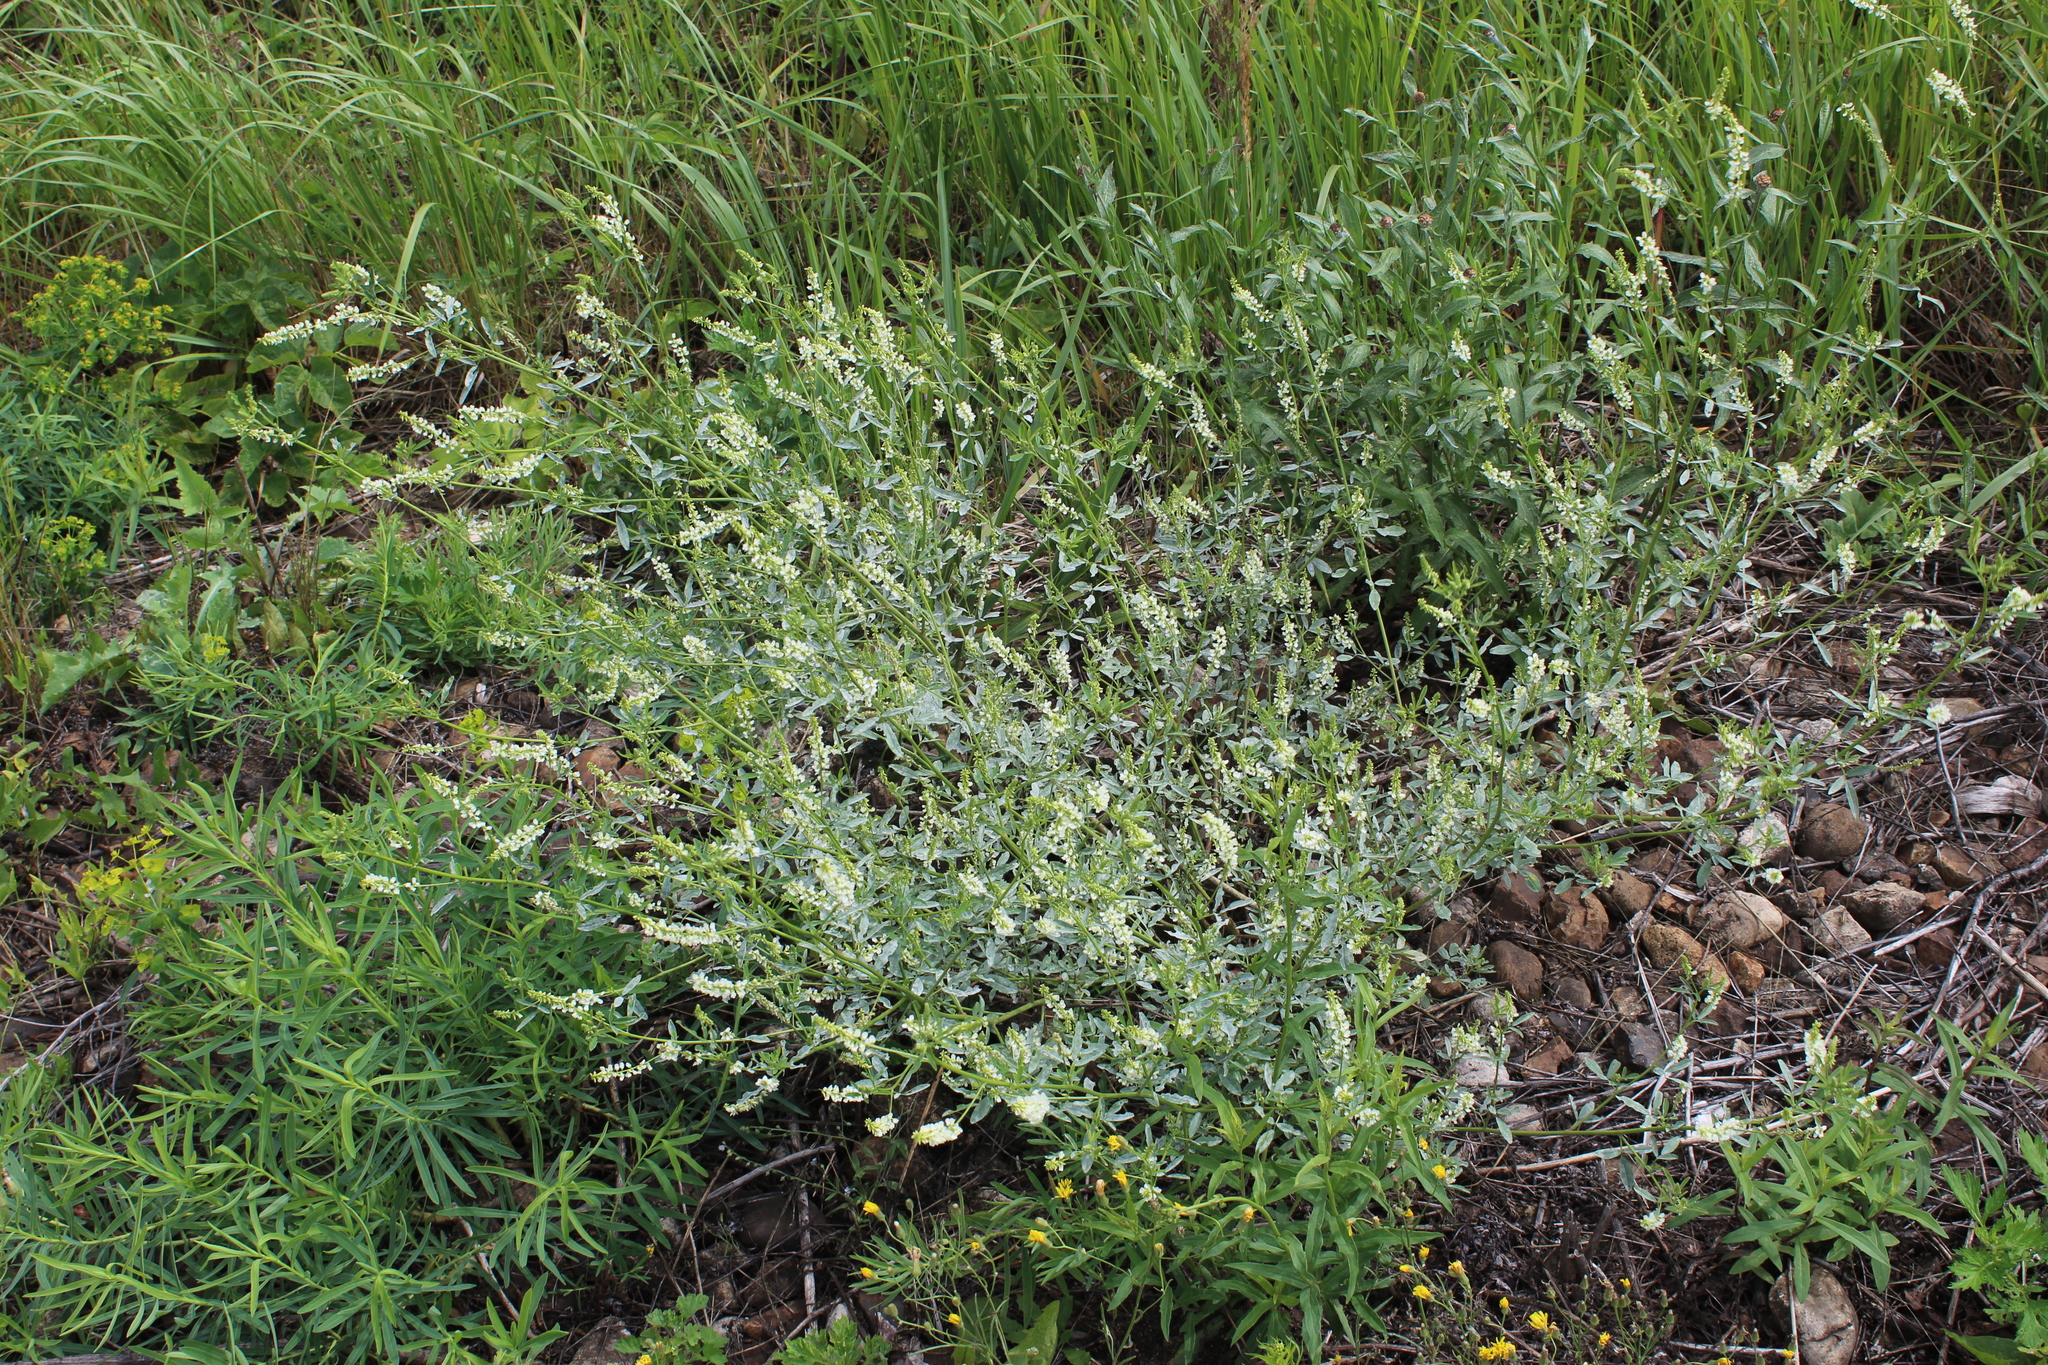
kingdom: Plantae
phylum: Tracheophyta
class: Magnoliopsida
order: Fabales
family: Fabaceae
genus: Melilotus
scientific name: Melilotus albus
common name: White melilot
